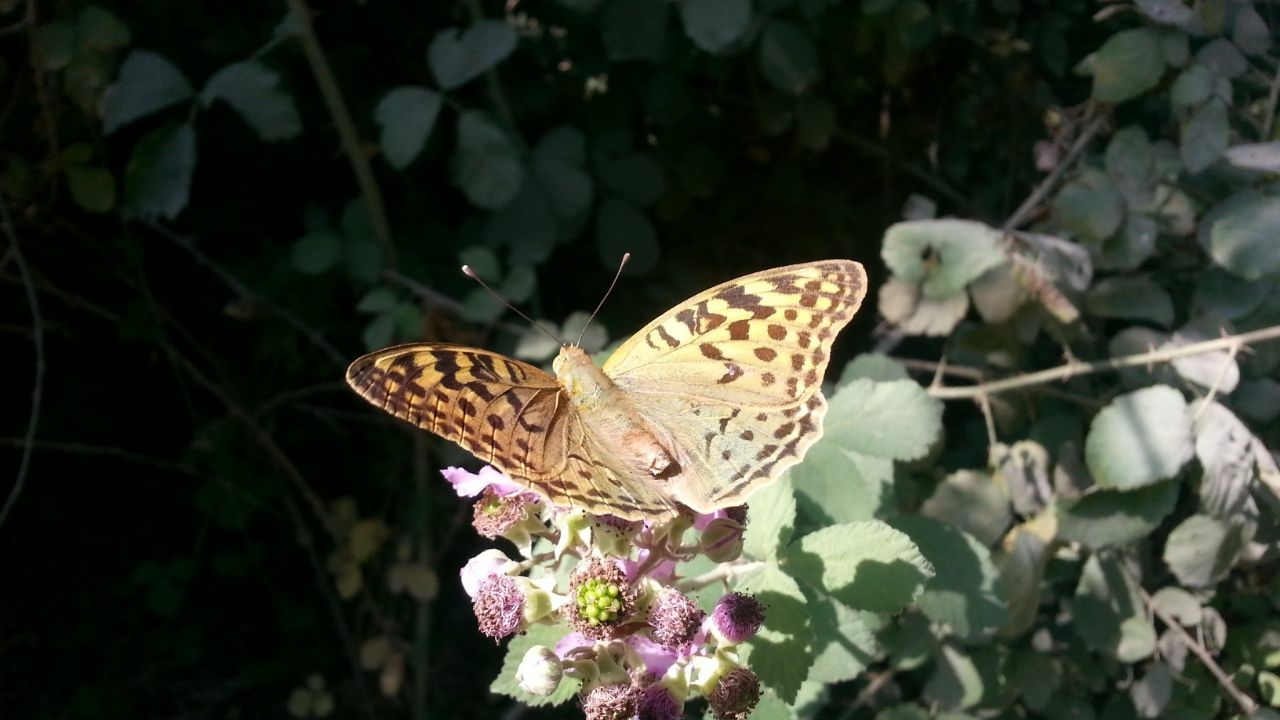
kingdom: Animalia
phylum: Arthropoda
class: Insecta
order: Lepidoptera
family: Nymphalidae
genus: Damora
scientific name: Damora pandora
